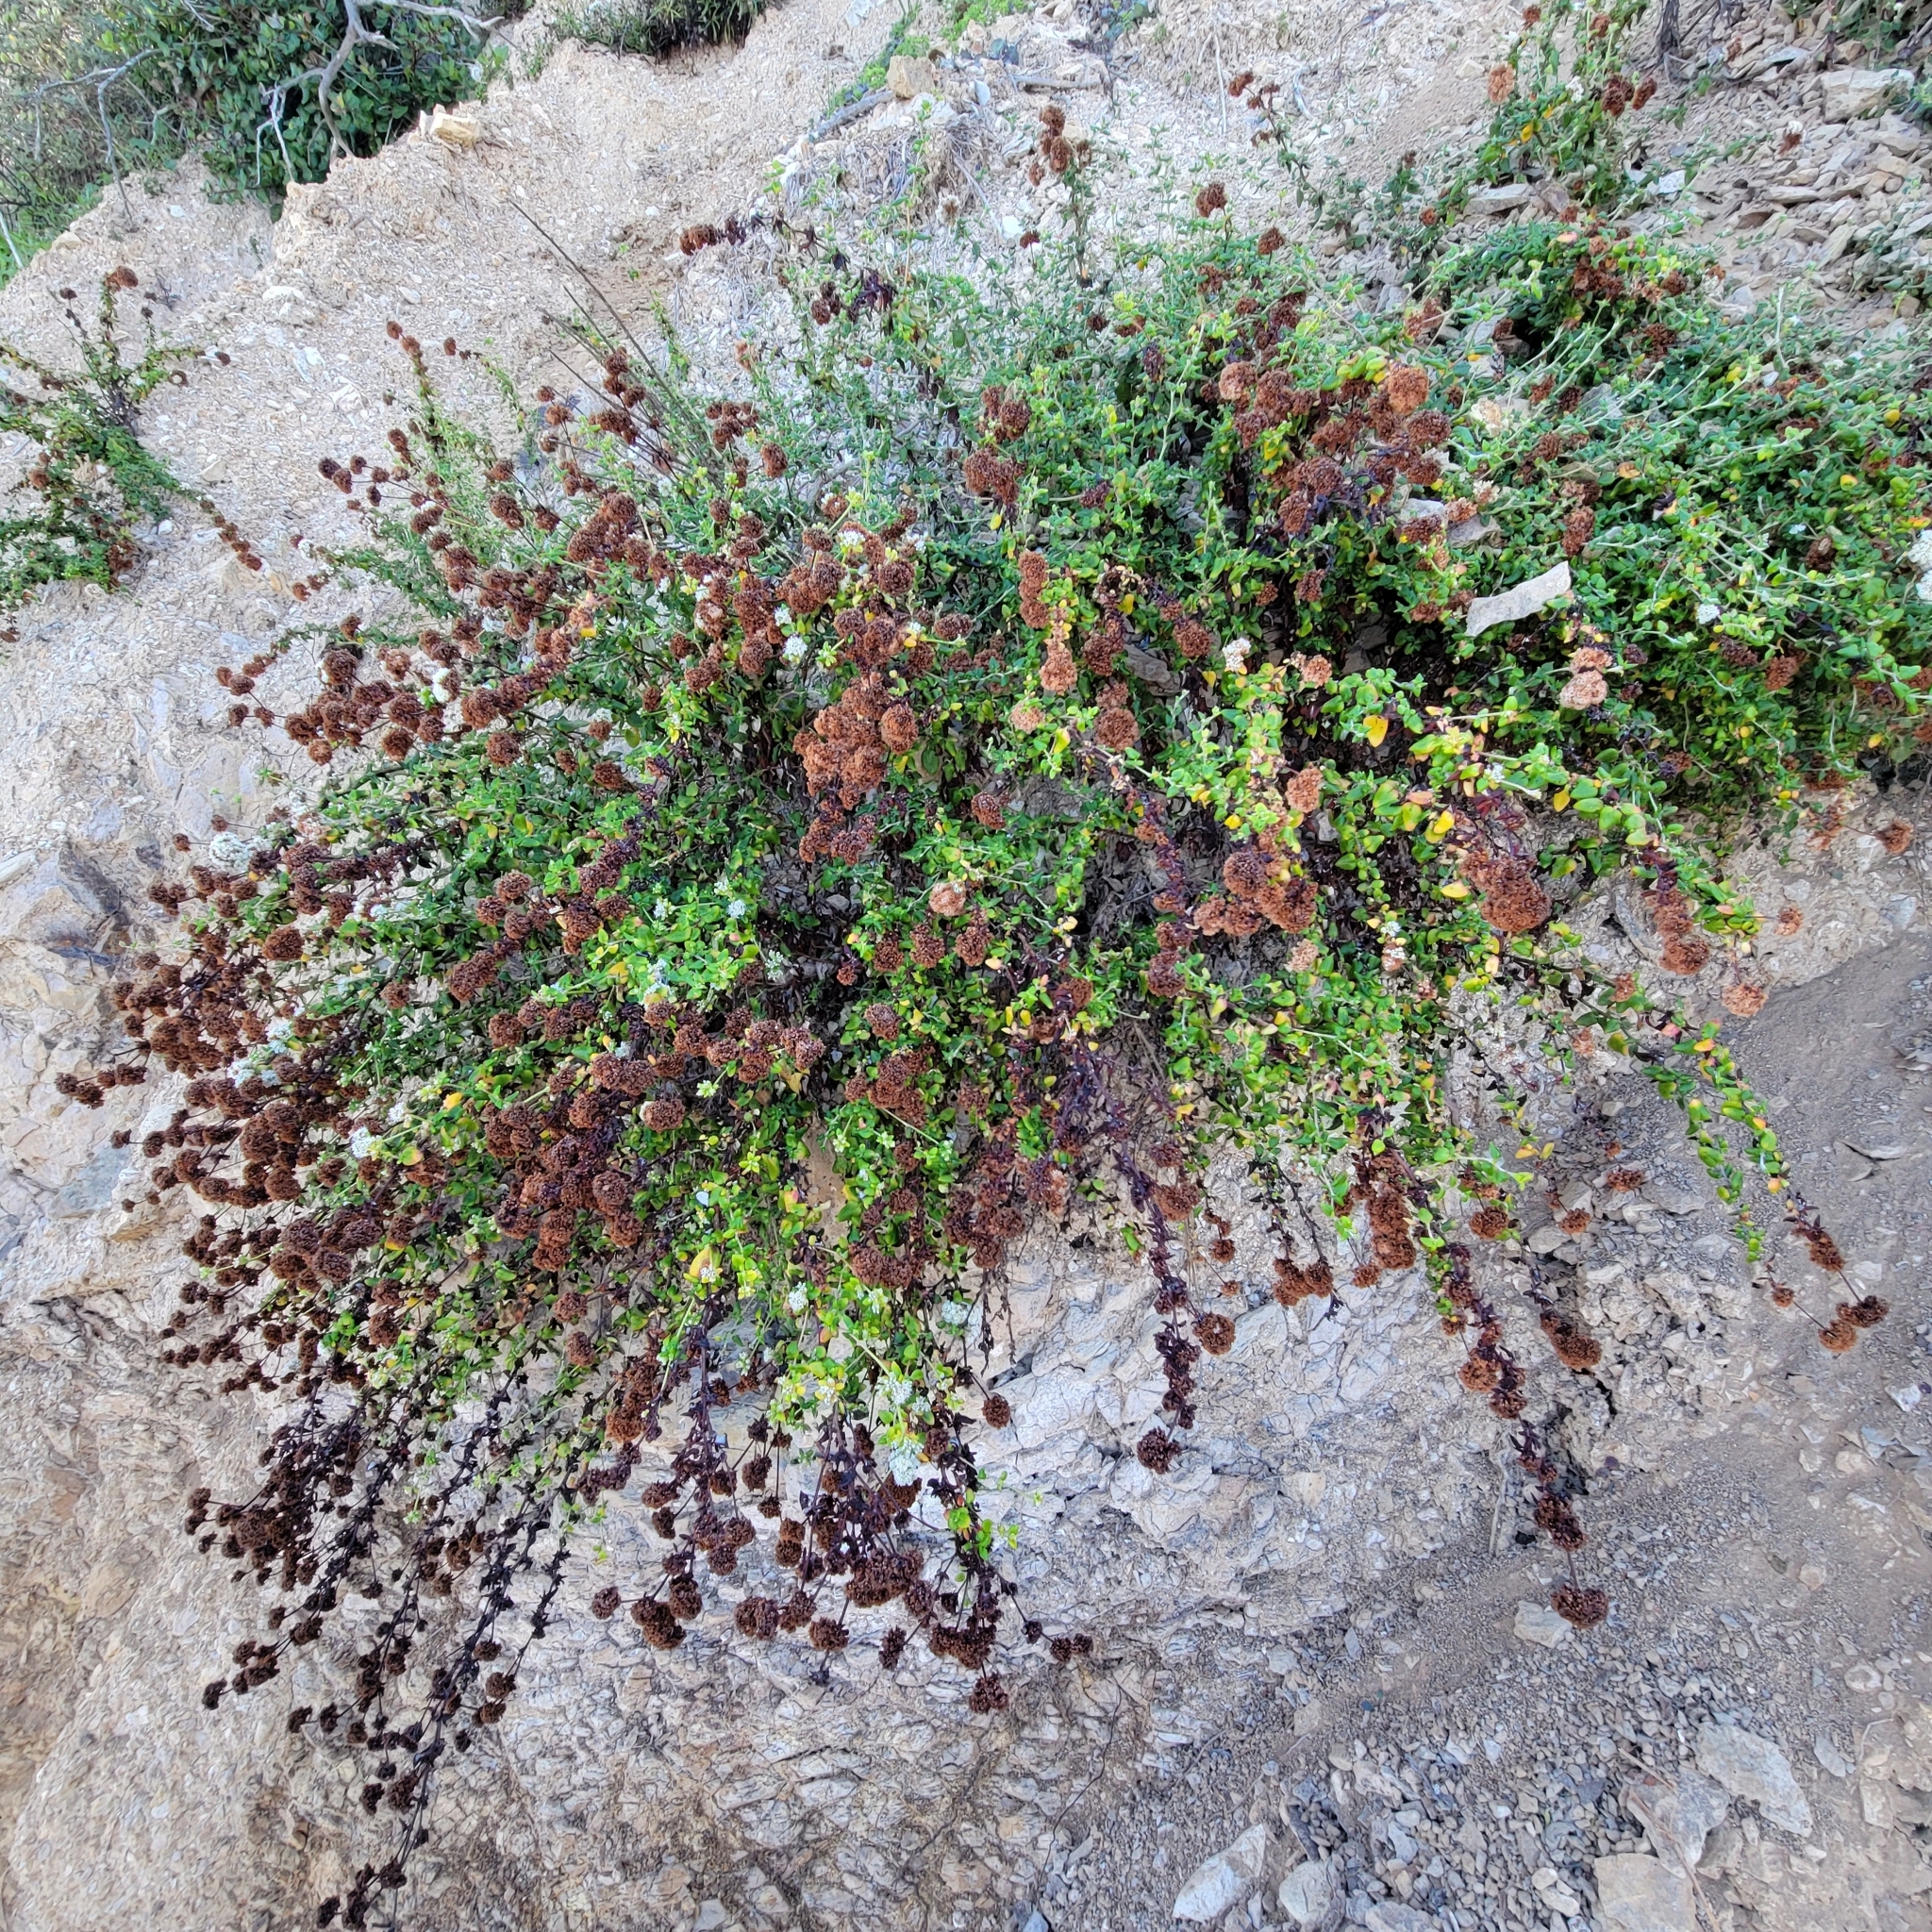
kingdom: Plantae
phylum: Tracheophyta
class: Magnoliopsida
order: Caryophyllales
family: Polygonaceae
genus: Eriogonum
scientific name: Eriogonum parvifolium
